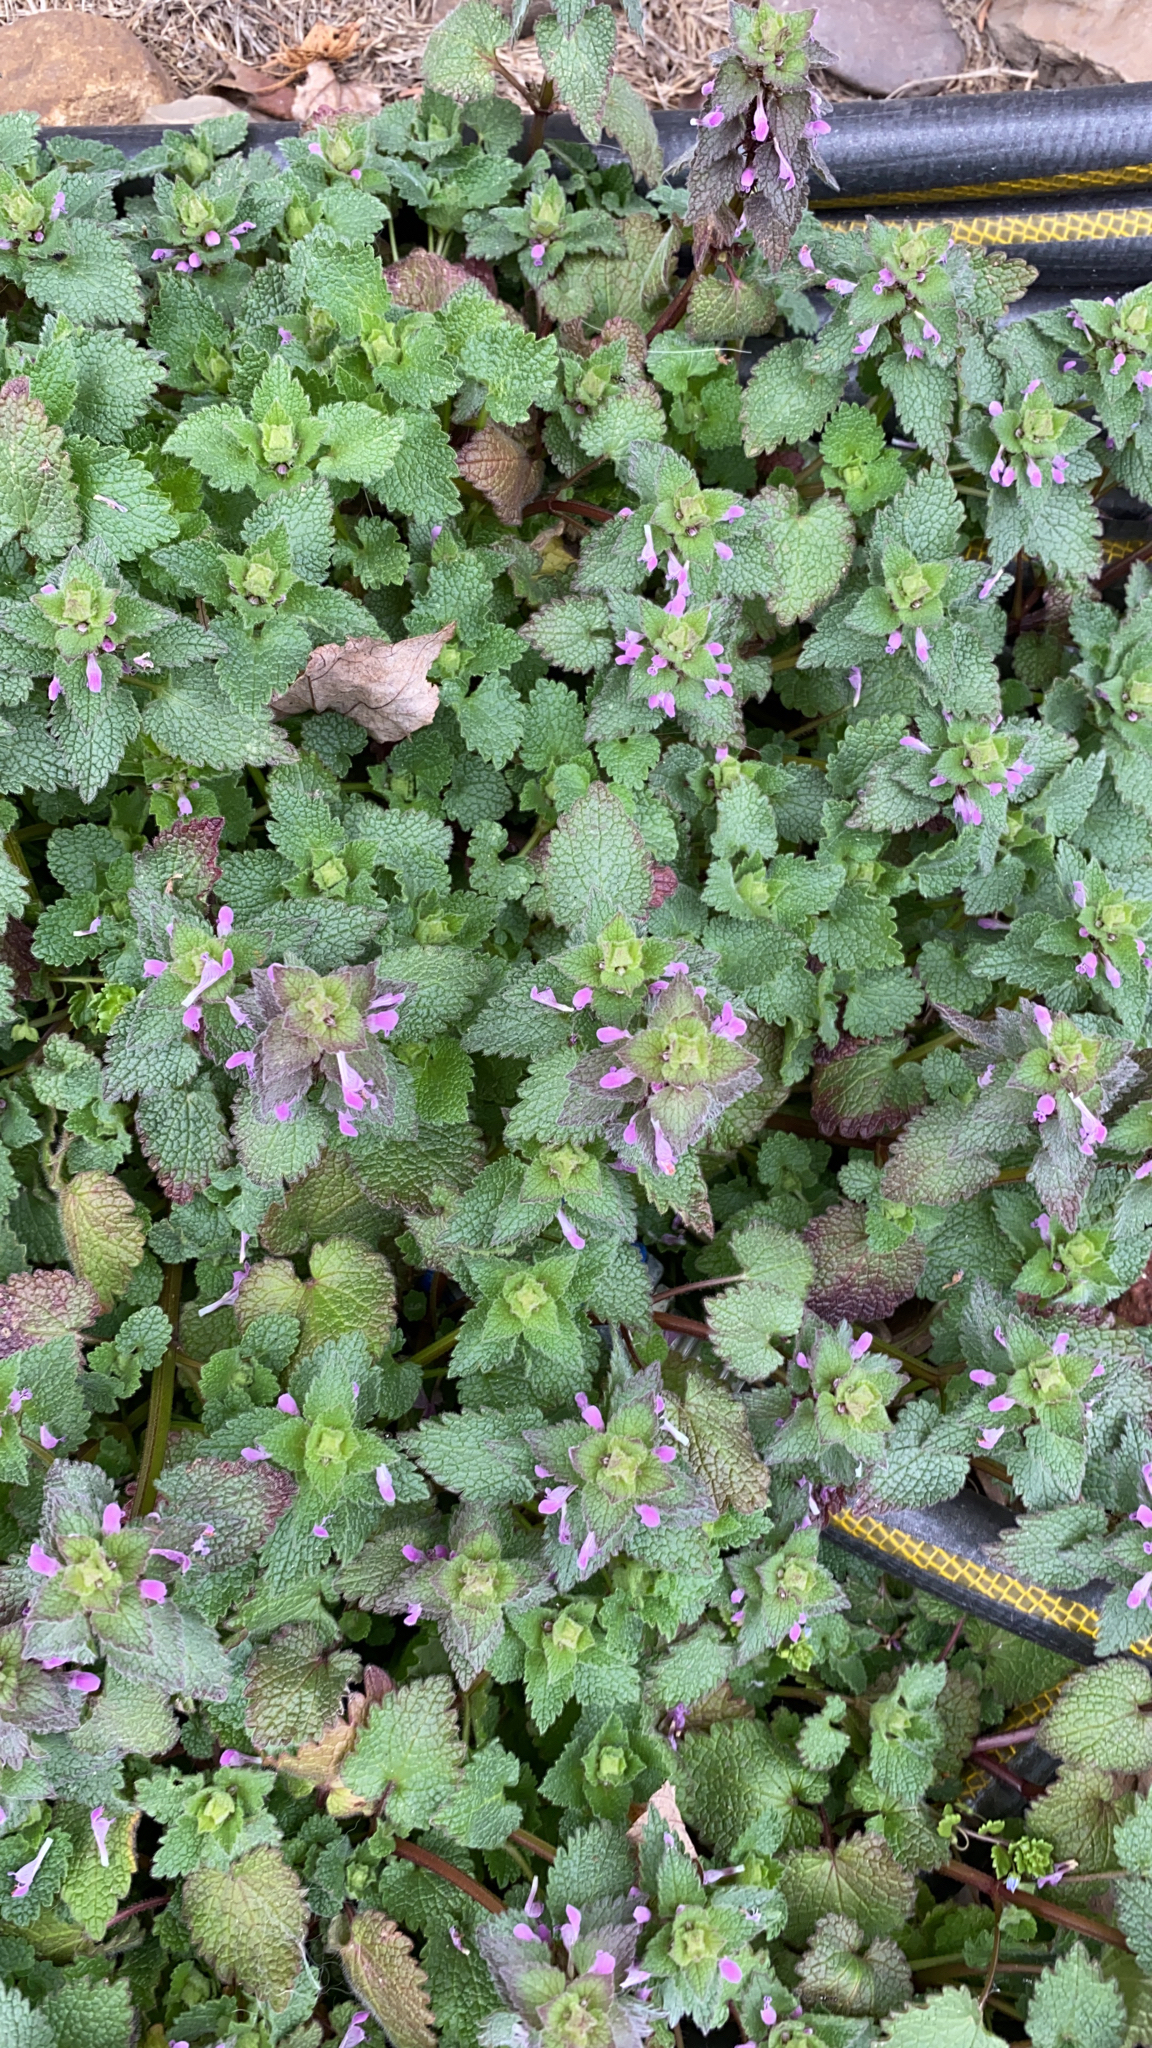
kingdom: Plantae
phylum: Tracheophyta
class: Magnoliopsida
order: Lamiales
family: Lamiaceae
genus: Lamium
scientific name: Lamium purpureum
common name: Red dead-nettle
